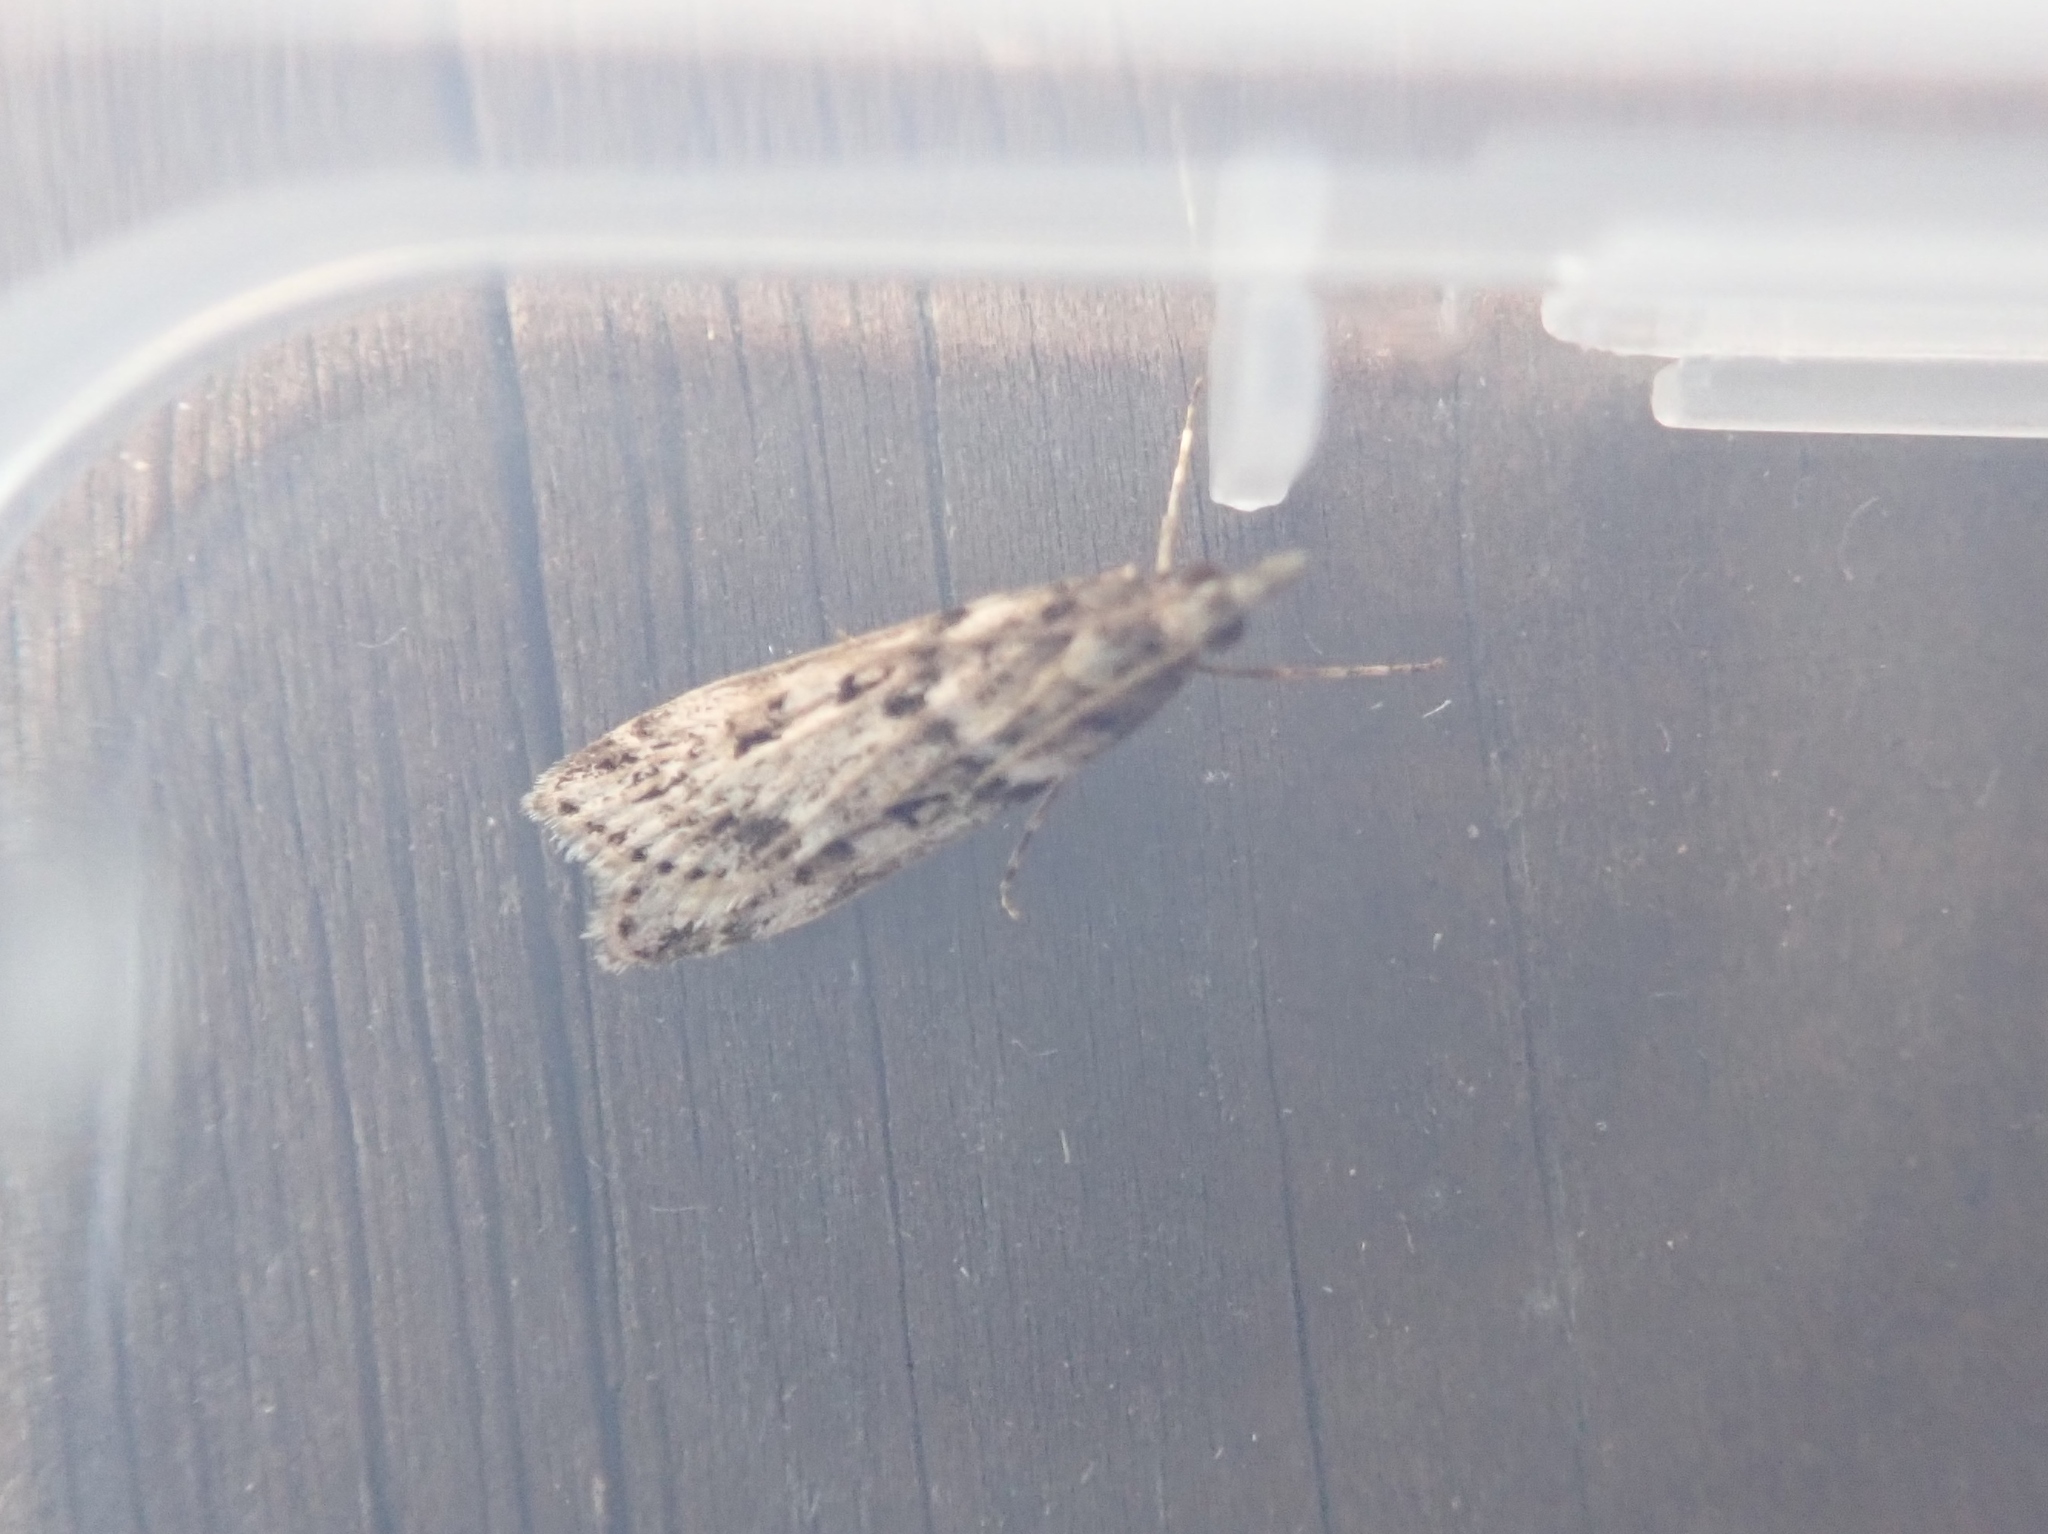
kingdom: Animalia
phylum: Arthropoda
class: Insecta
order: Lepidoptera
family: Crambidae
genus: Eudonia
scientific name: Eudonia angustea
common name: Narrow-winged grey
